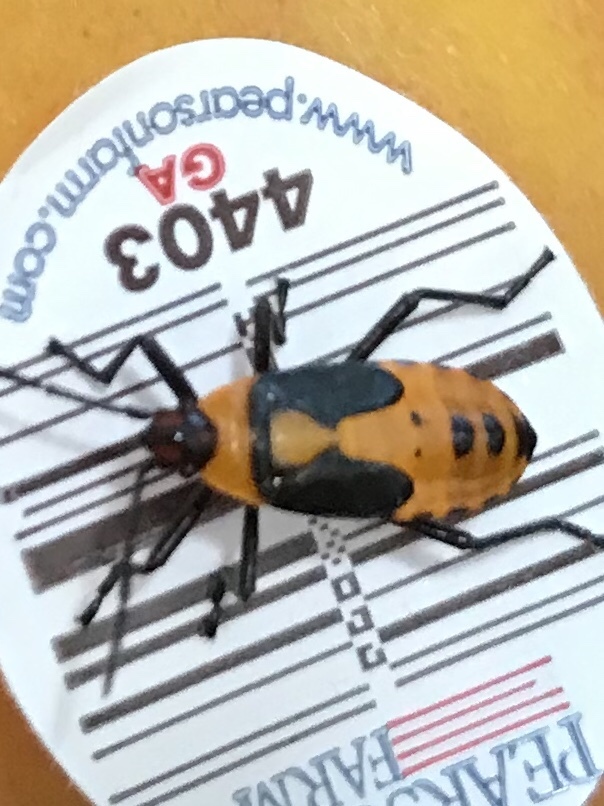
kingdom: Animalia
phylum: Arthropoda
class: Insecta
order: Hemiptera
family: Lygaeidae
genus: Oncopeltus
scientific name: Oncopeltus fasciatus
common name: Large milkweed bug
